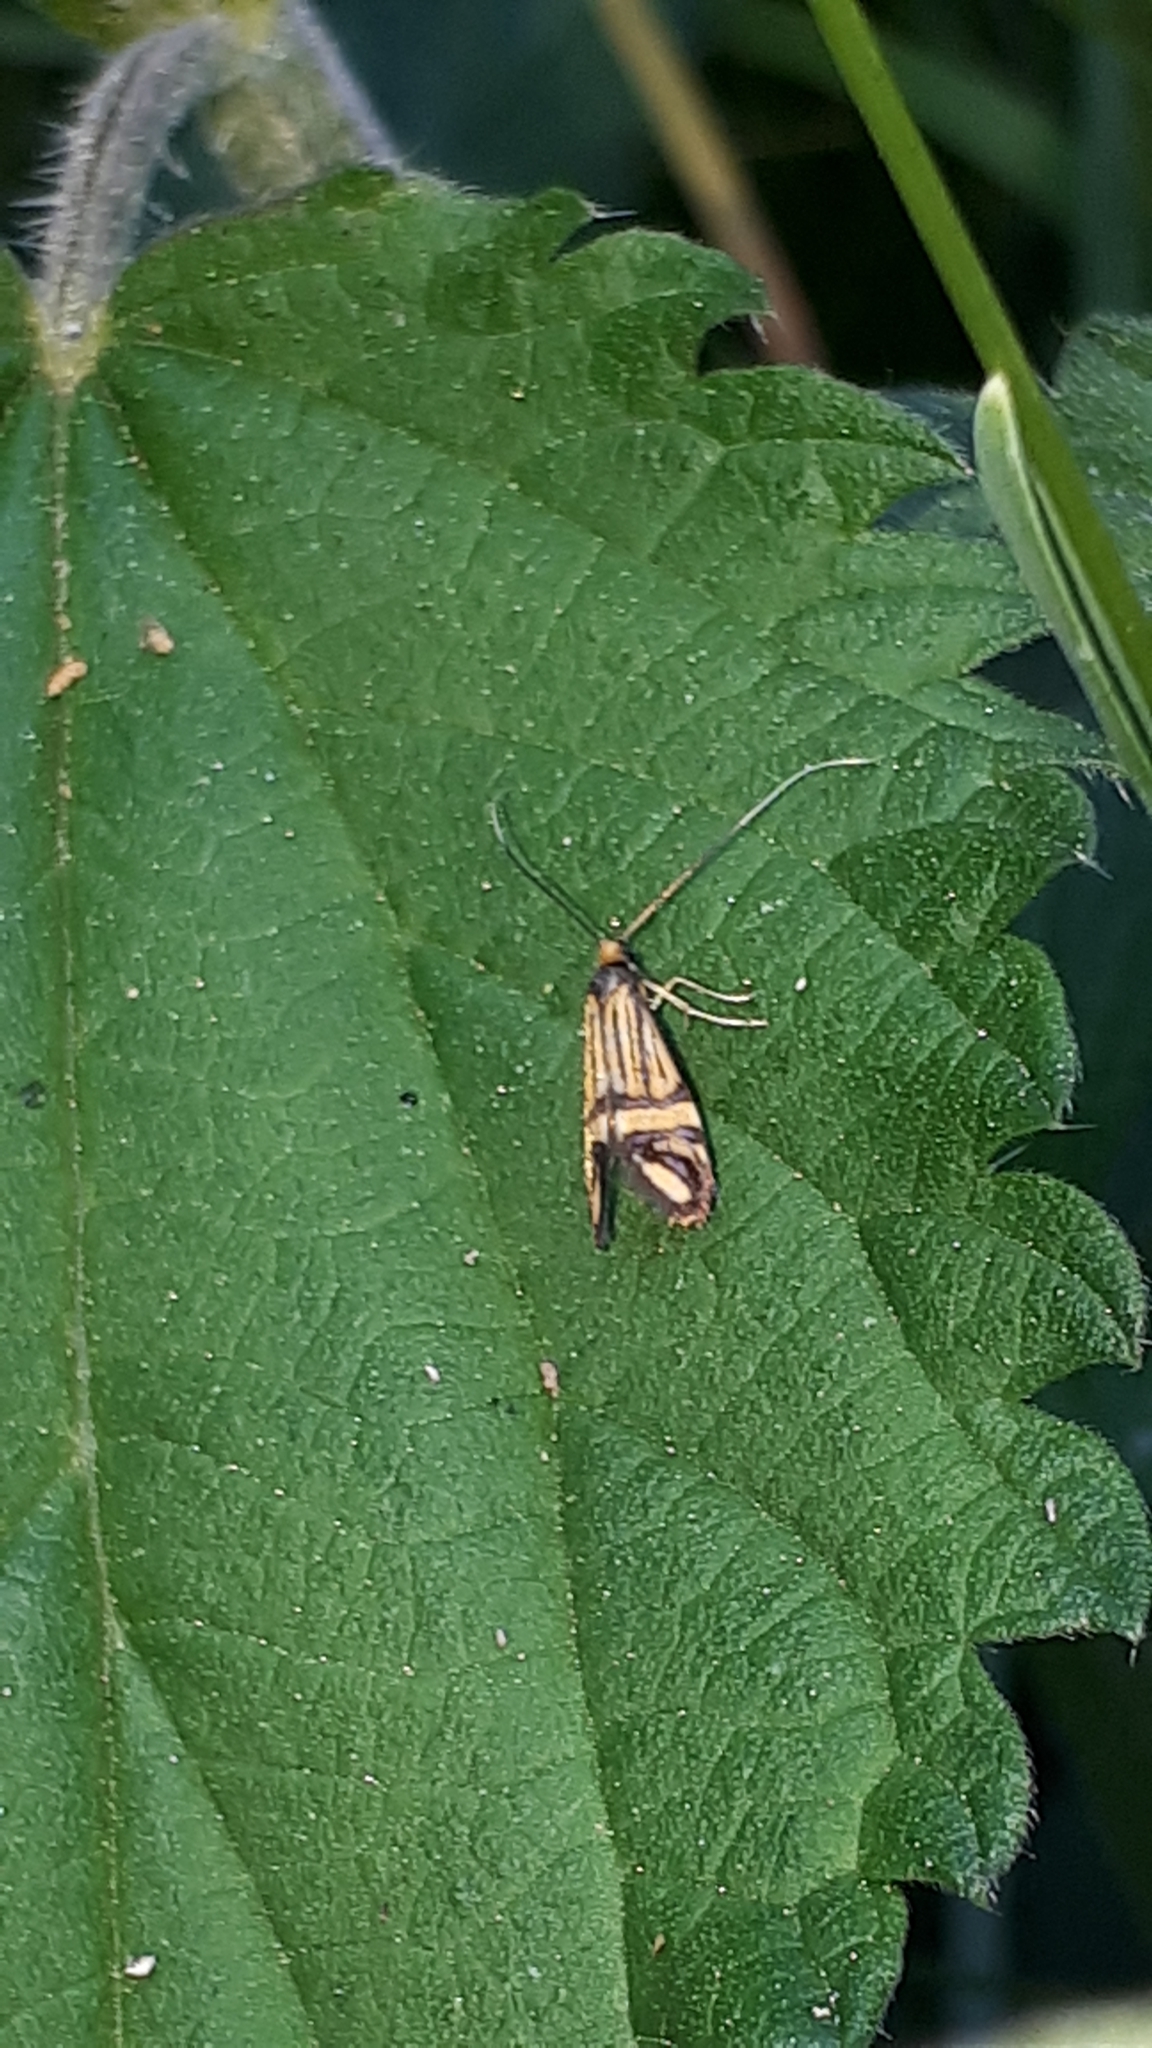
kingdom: Animalia
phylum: Arthropoda
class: Insecta
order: Lepidoptera
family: Adelidae
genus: Nemophora
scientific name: Nemophora ochsenheimerella
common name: Ochsenheimer’s long-horn
